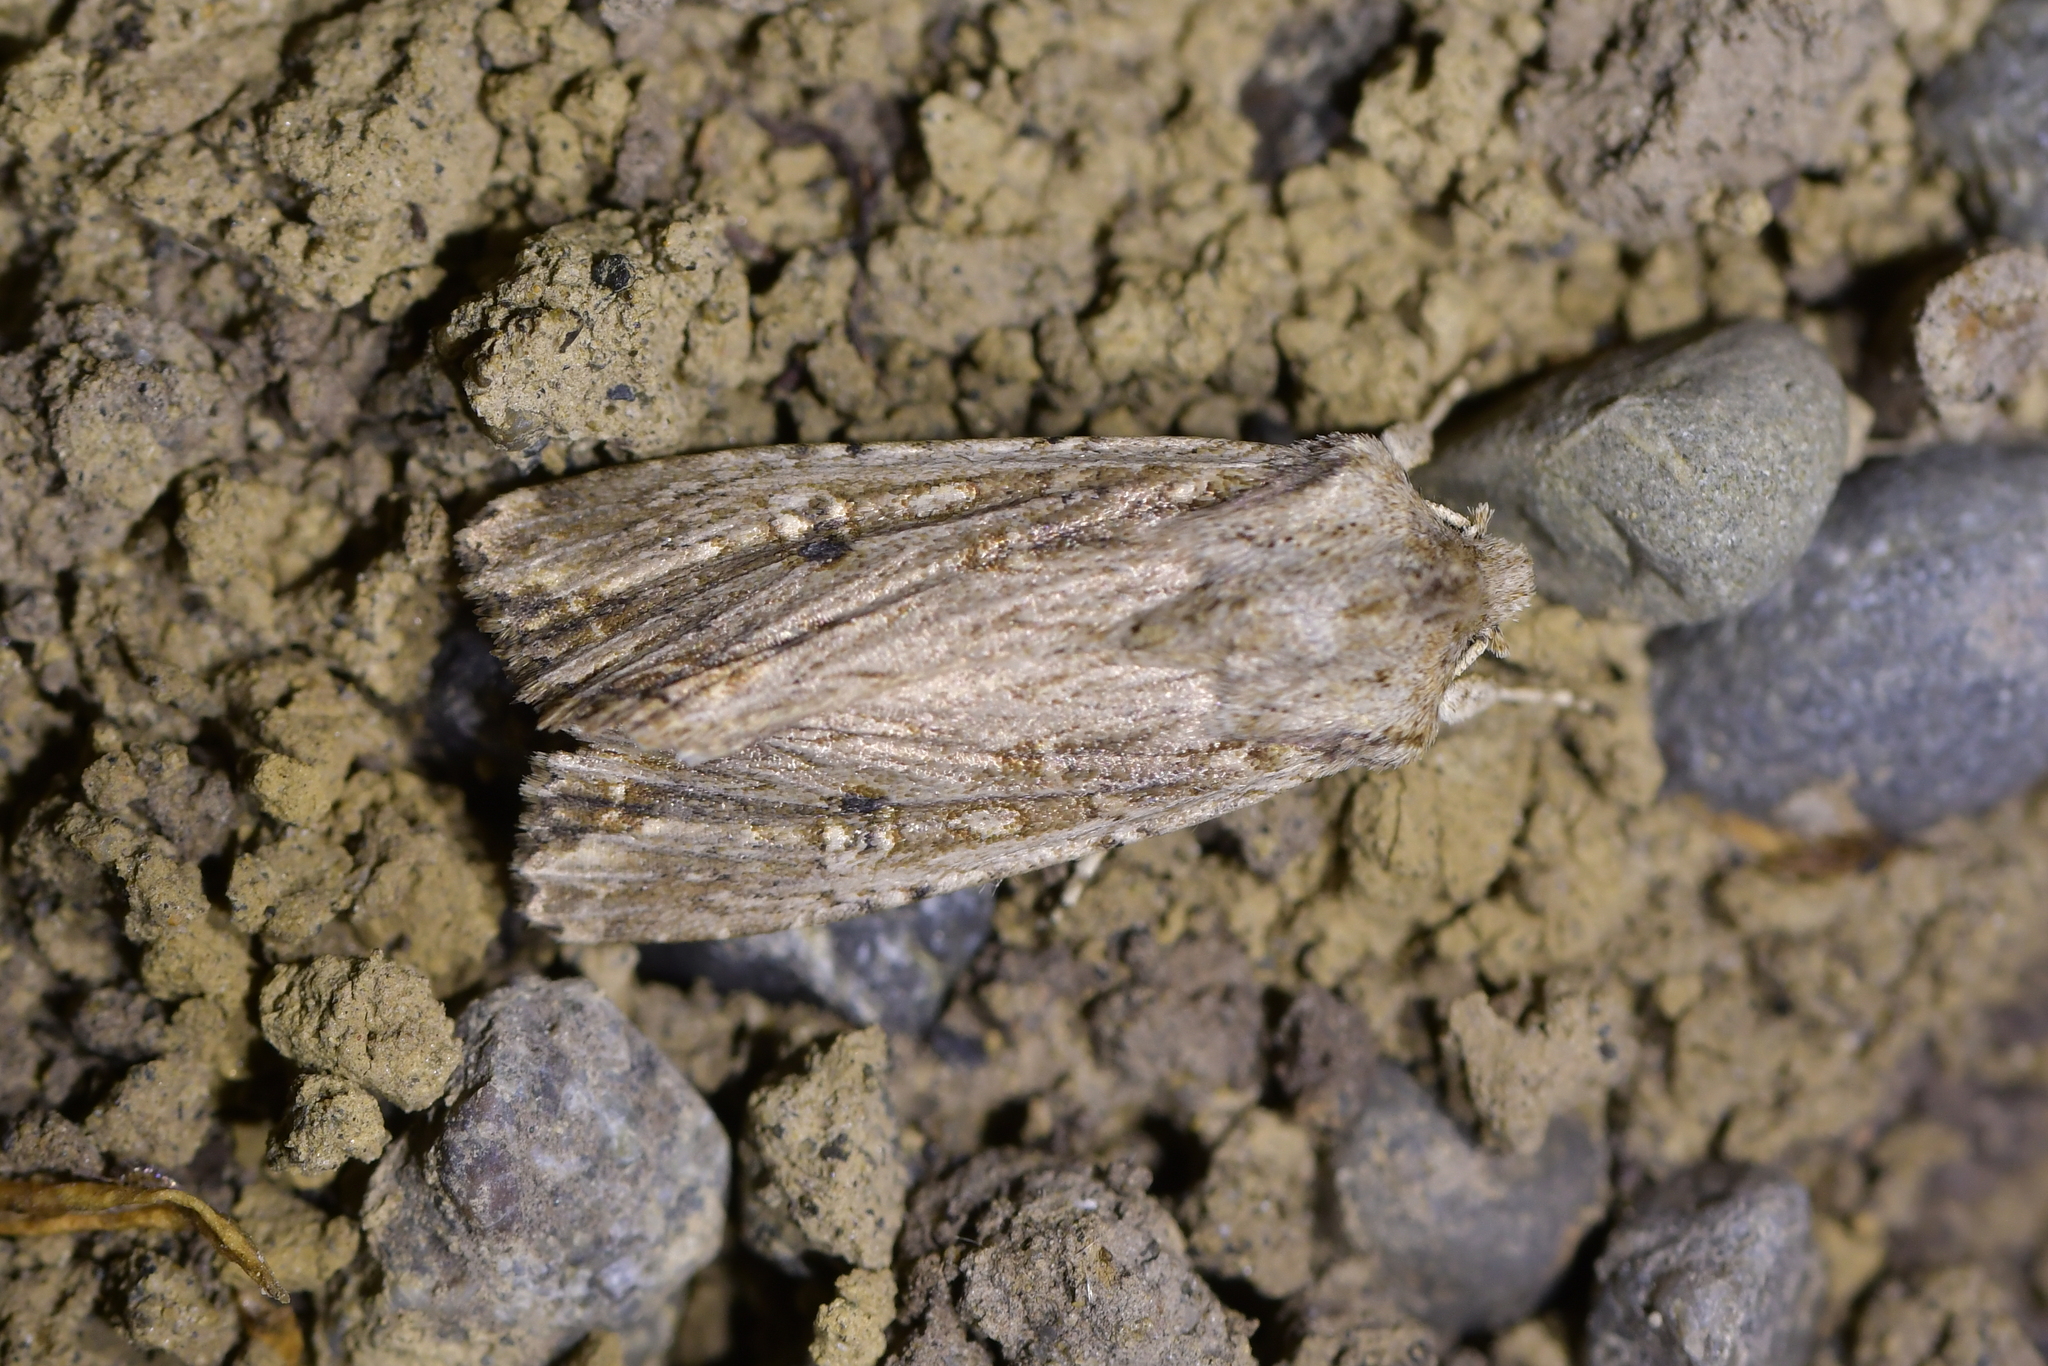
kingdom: Animalia
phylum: Arthropoda
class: Insecta
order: Lepidoptera
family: Noctuidae
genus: Ichneutica
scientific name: Ichneutica lignana
